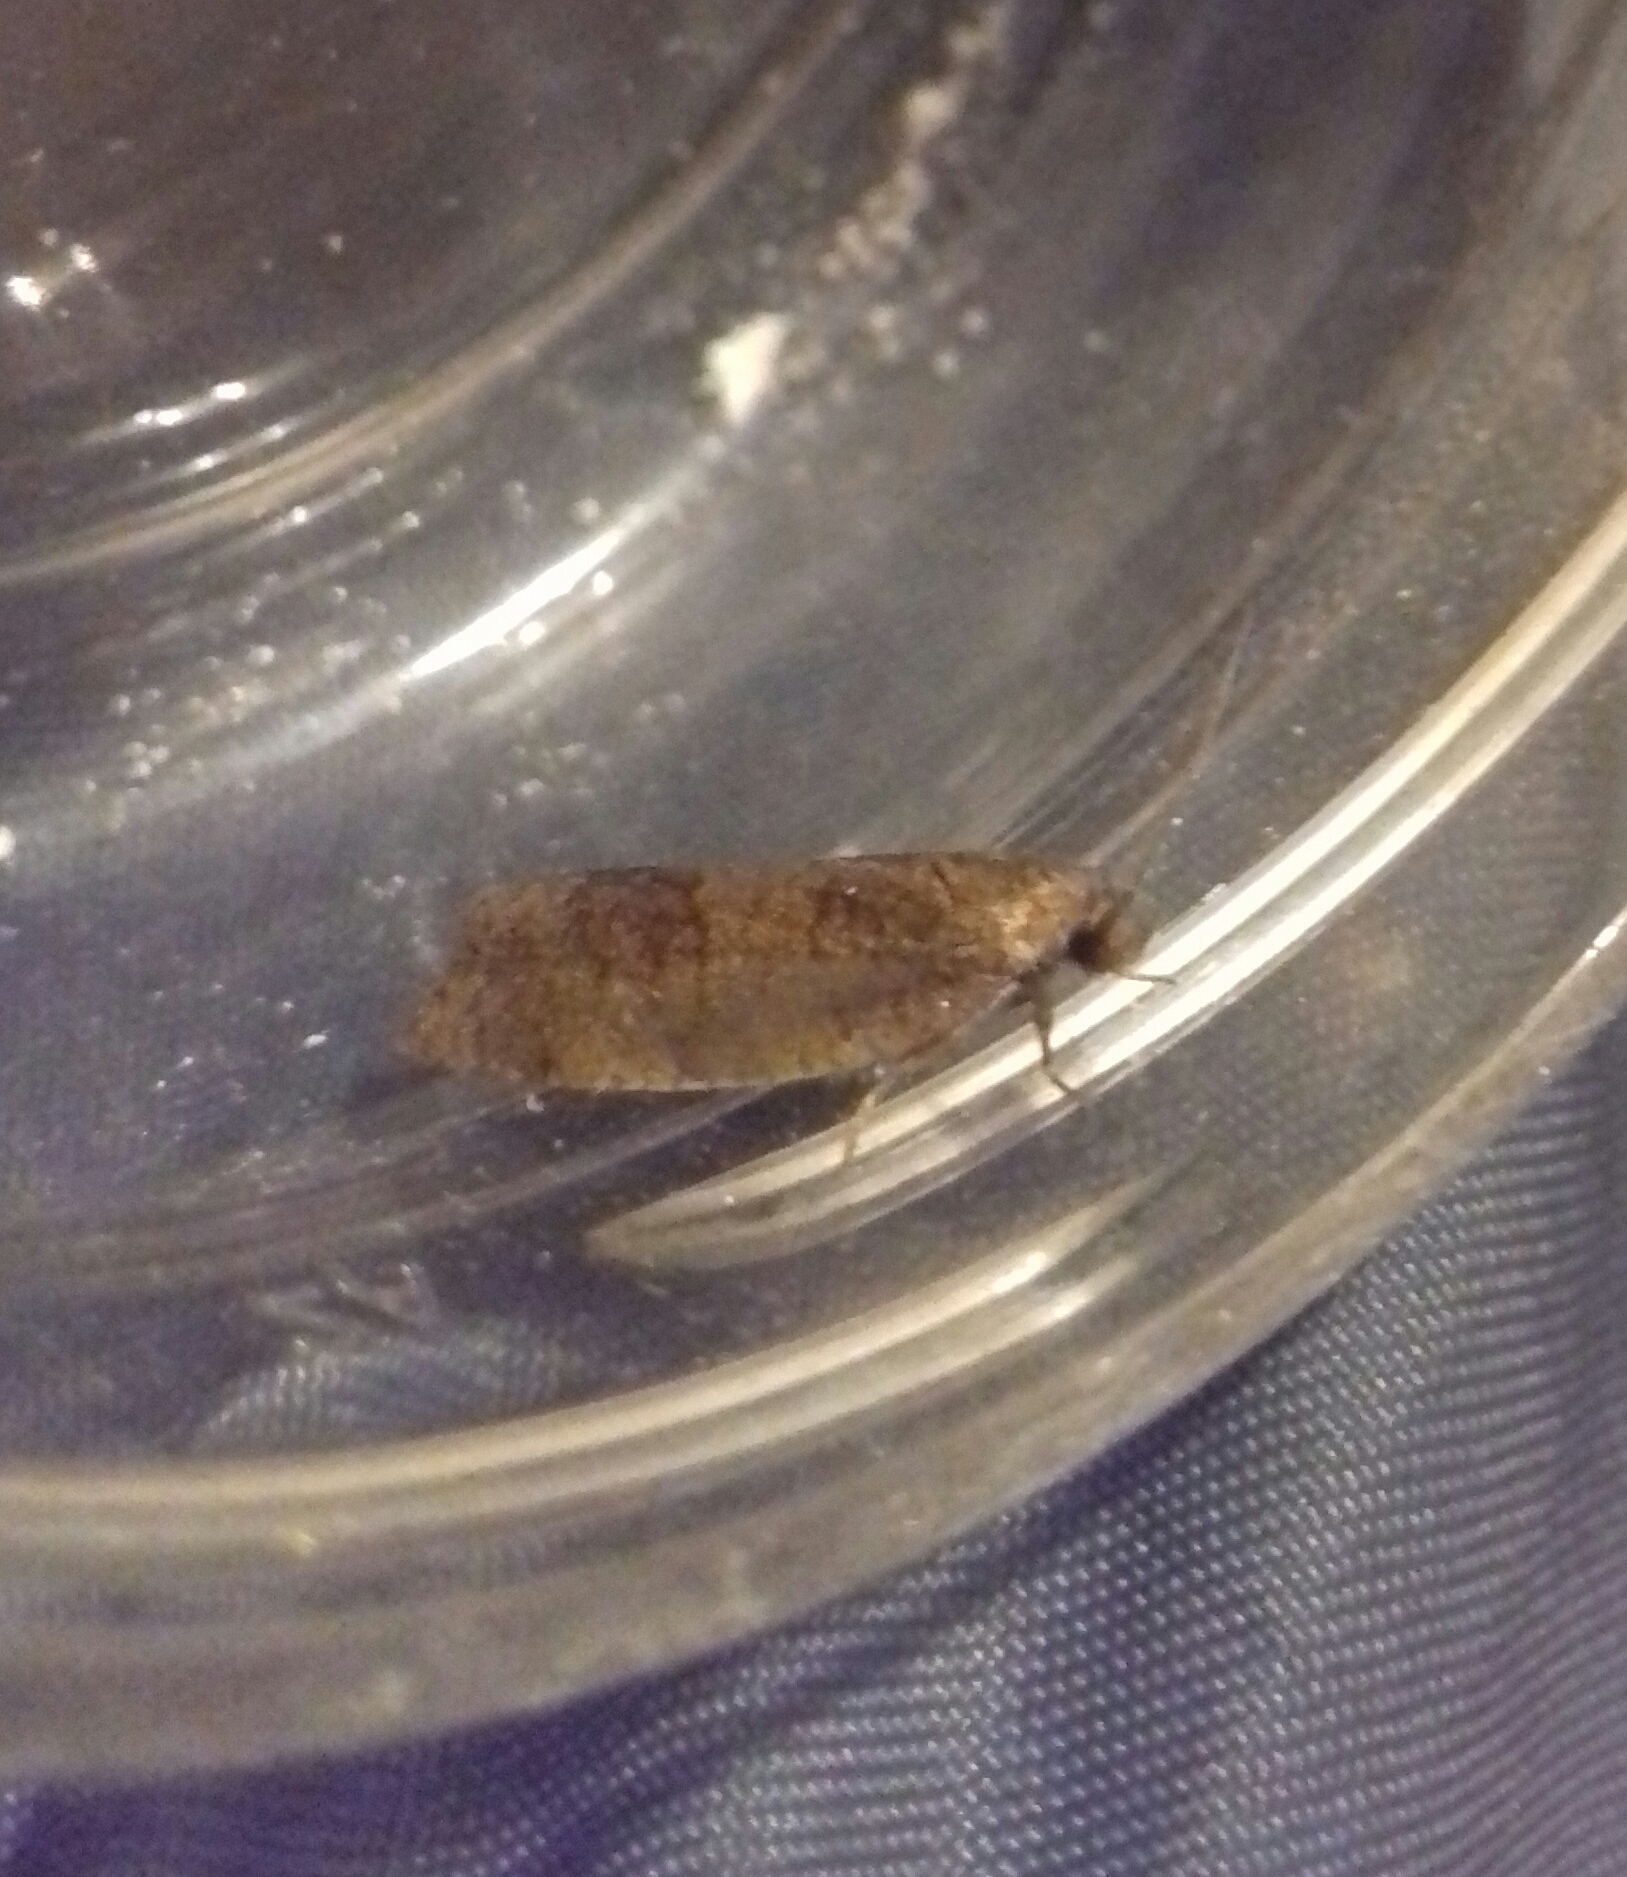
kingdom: Animalia
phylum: Arthropoda
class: Insecta
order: Lepidoptera
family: Tortricidae
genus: Choristoneura
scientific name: Choristoneura diversana
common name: Forest tortrix
